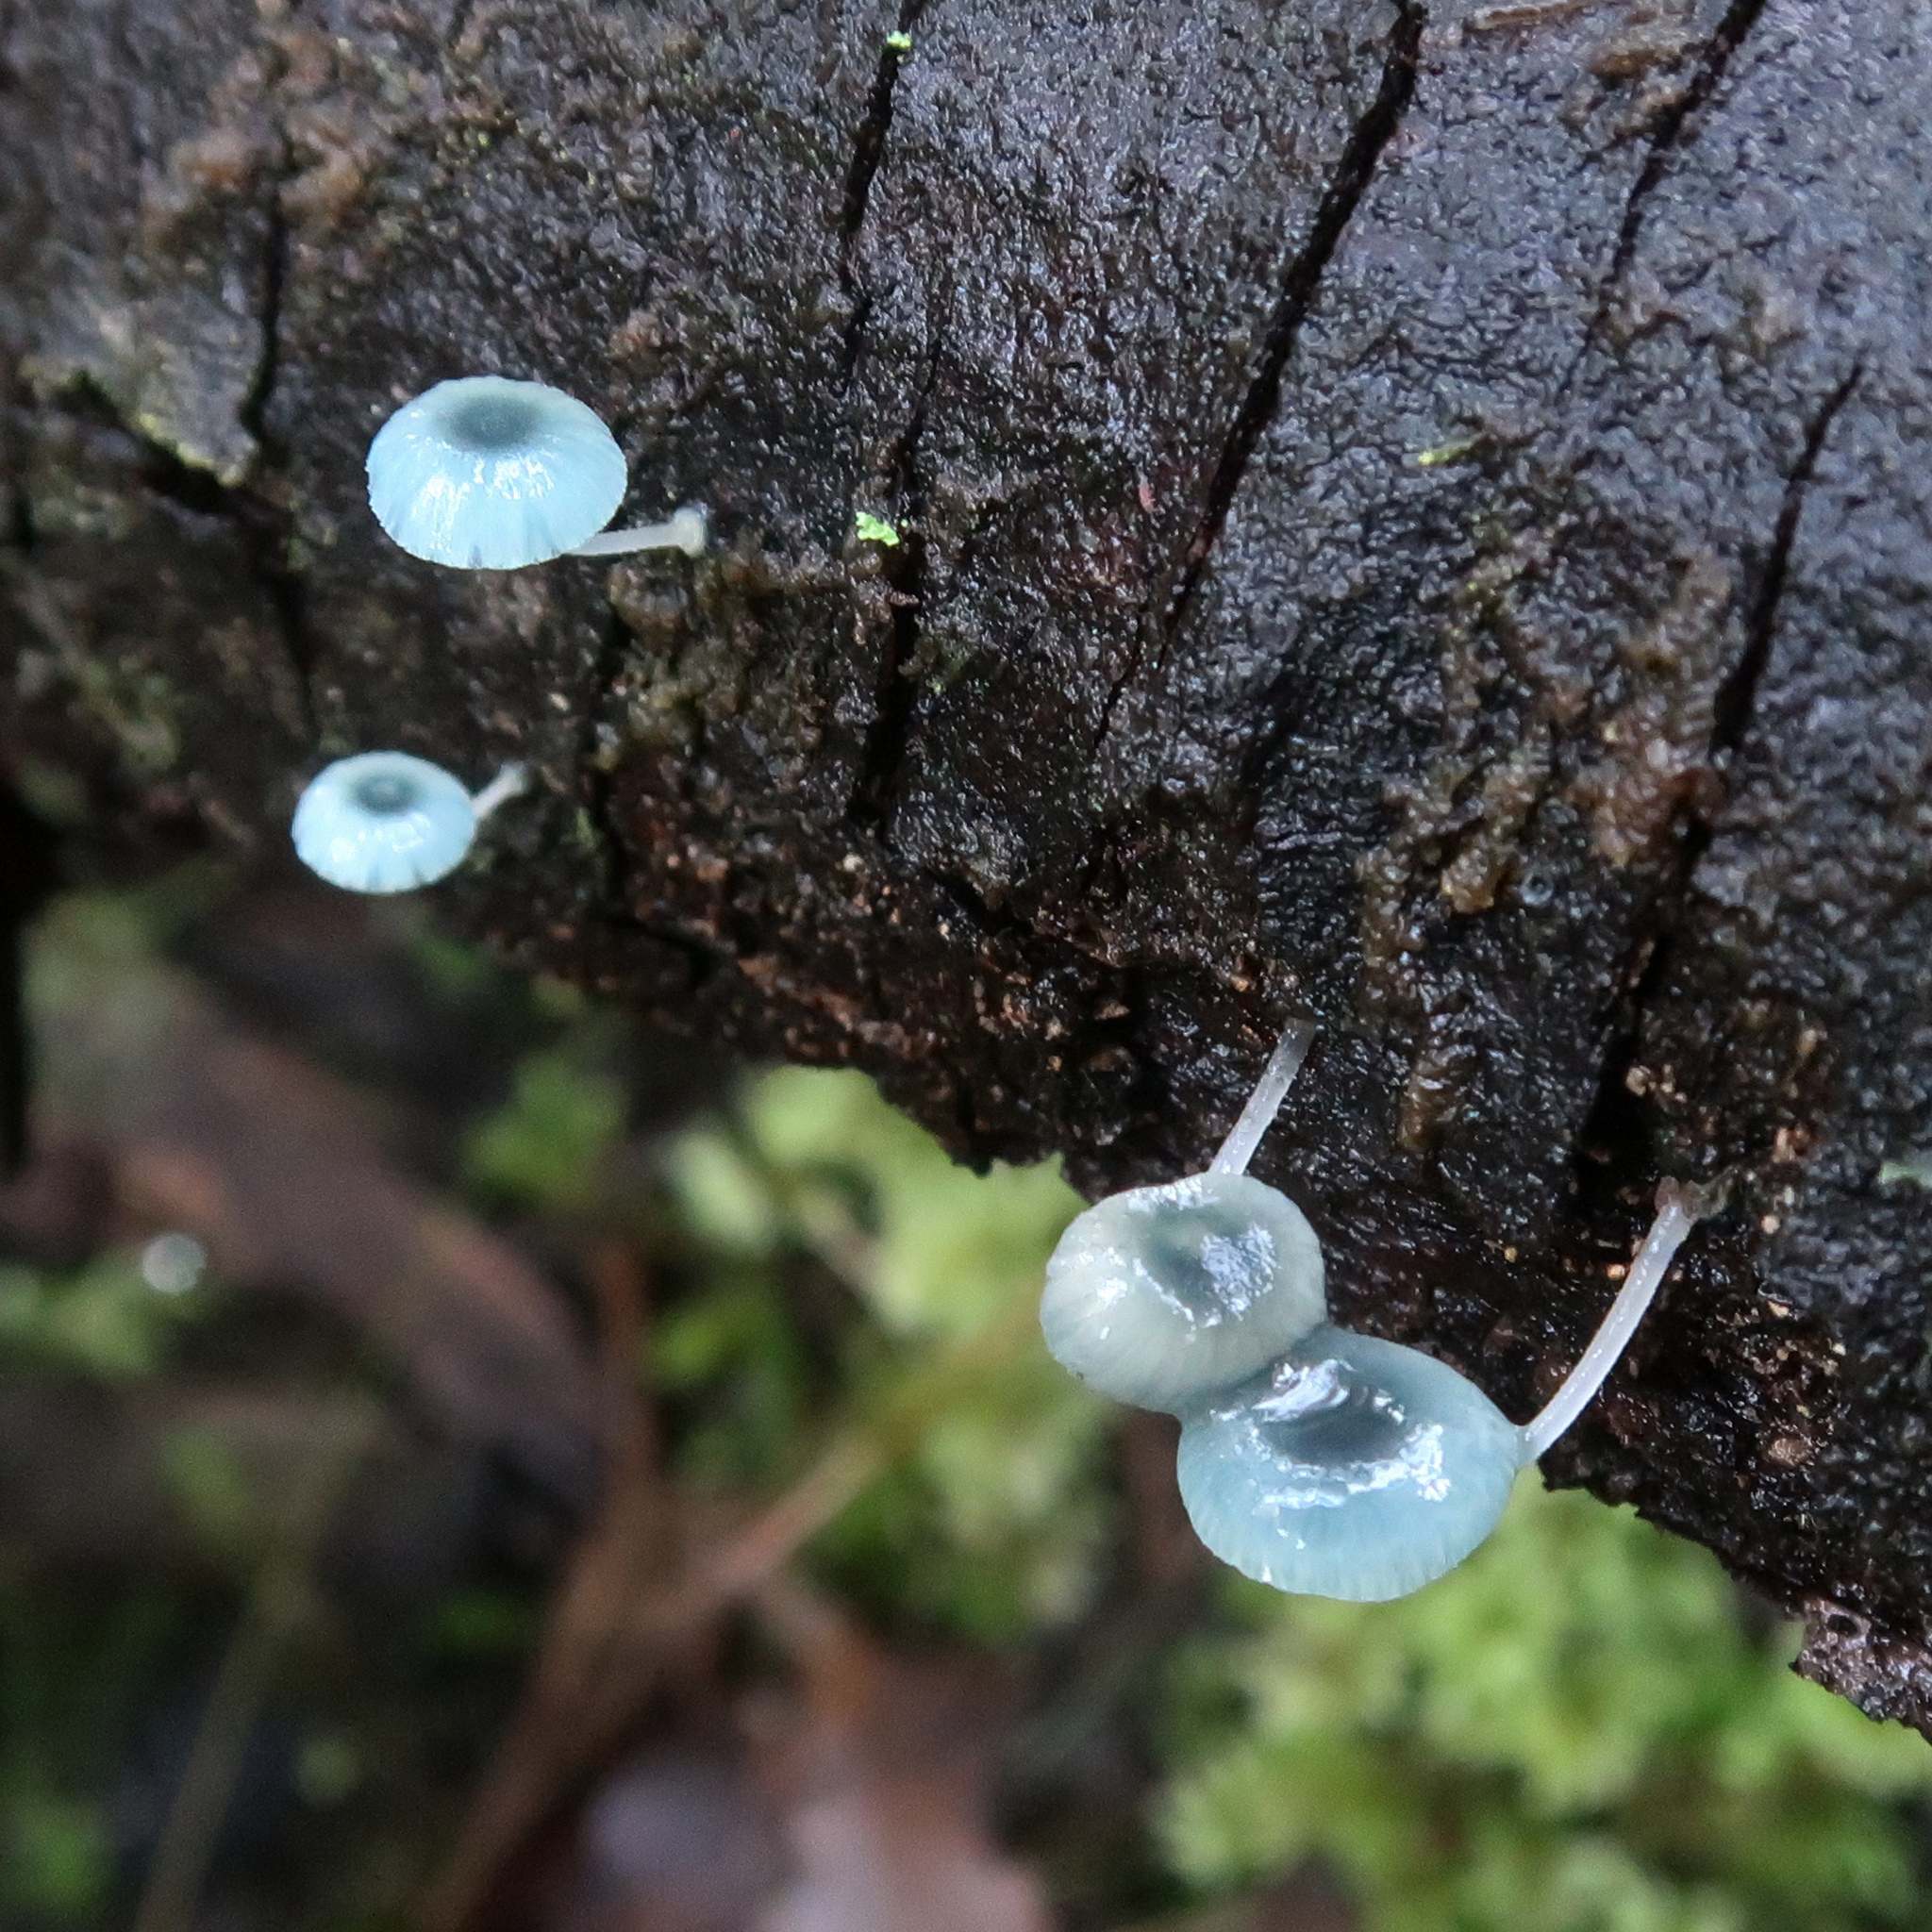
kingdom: Fungi
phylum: Basidiomycota
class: Agaricomycetes
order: Agaricales
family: Mycenaceae
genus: Mycena
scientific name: Mycena interrupta
